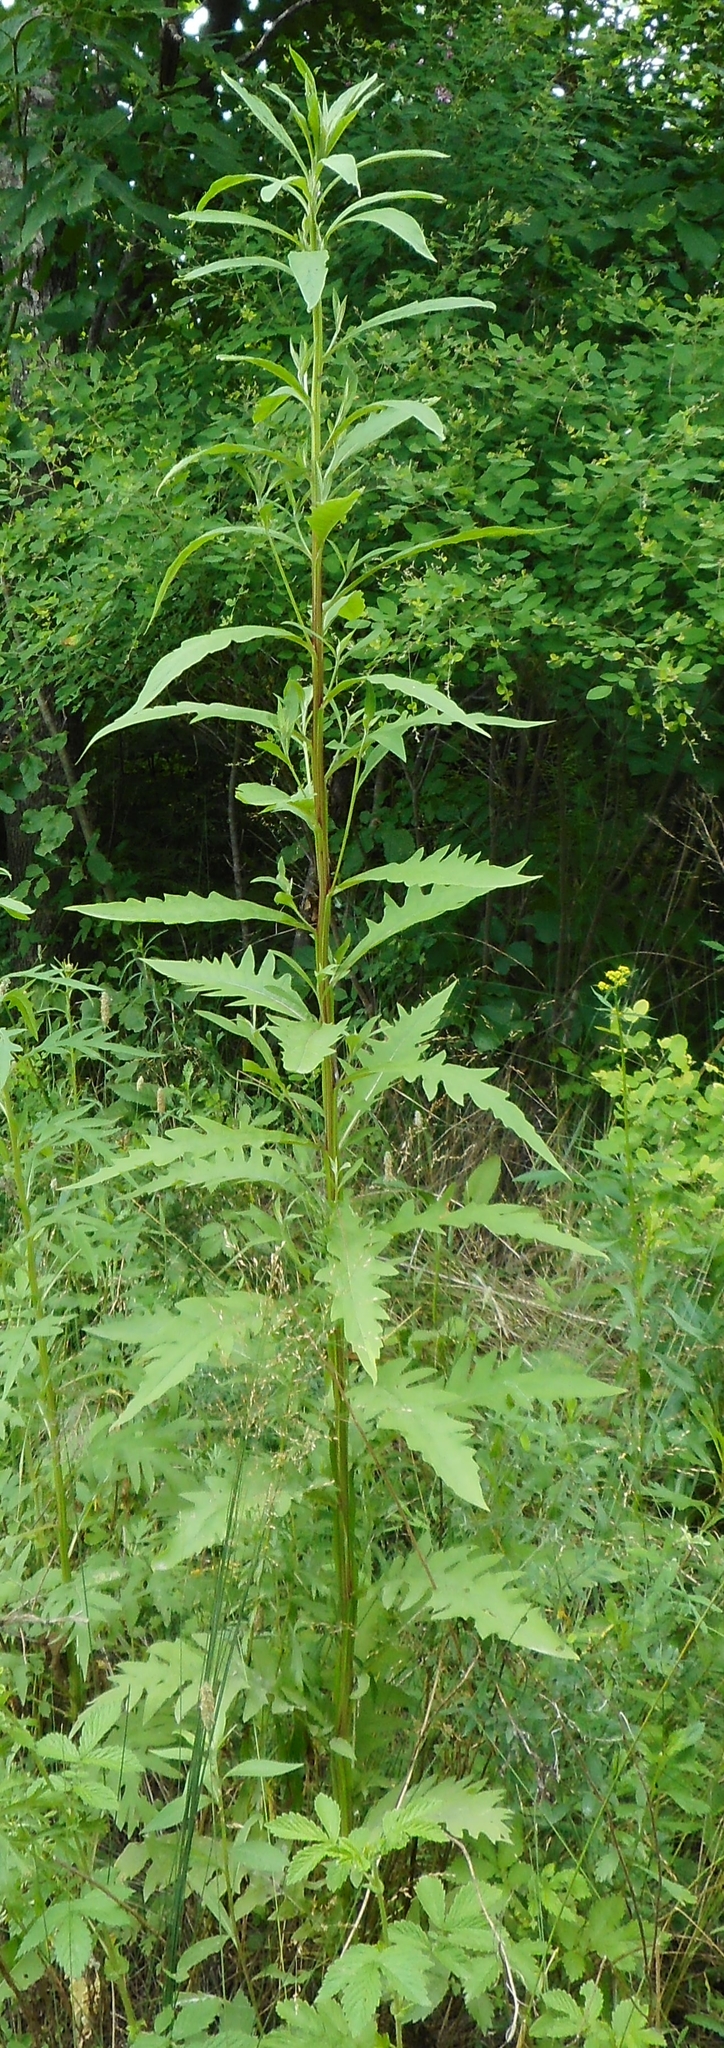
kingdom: Plantae
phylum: Tracheophyta
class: Magnoliopsida
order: Asterales
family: Asteraceae
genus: Saussurea
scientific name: Saussurea pulchella
